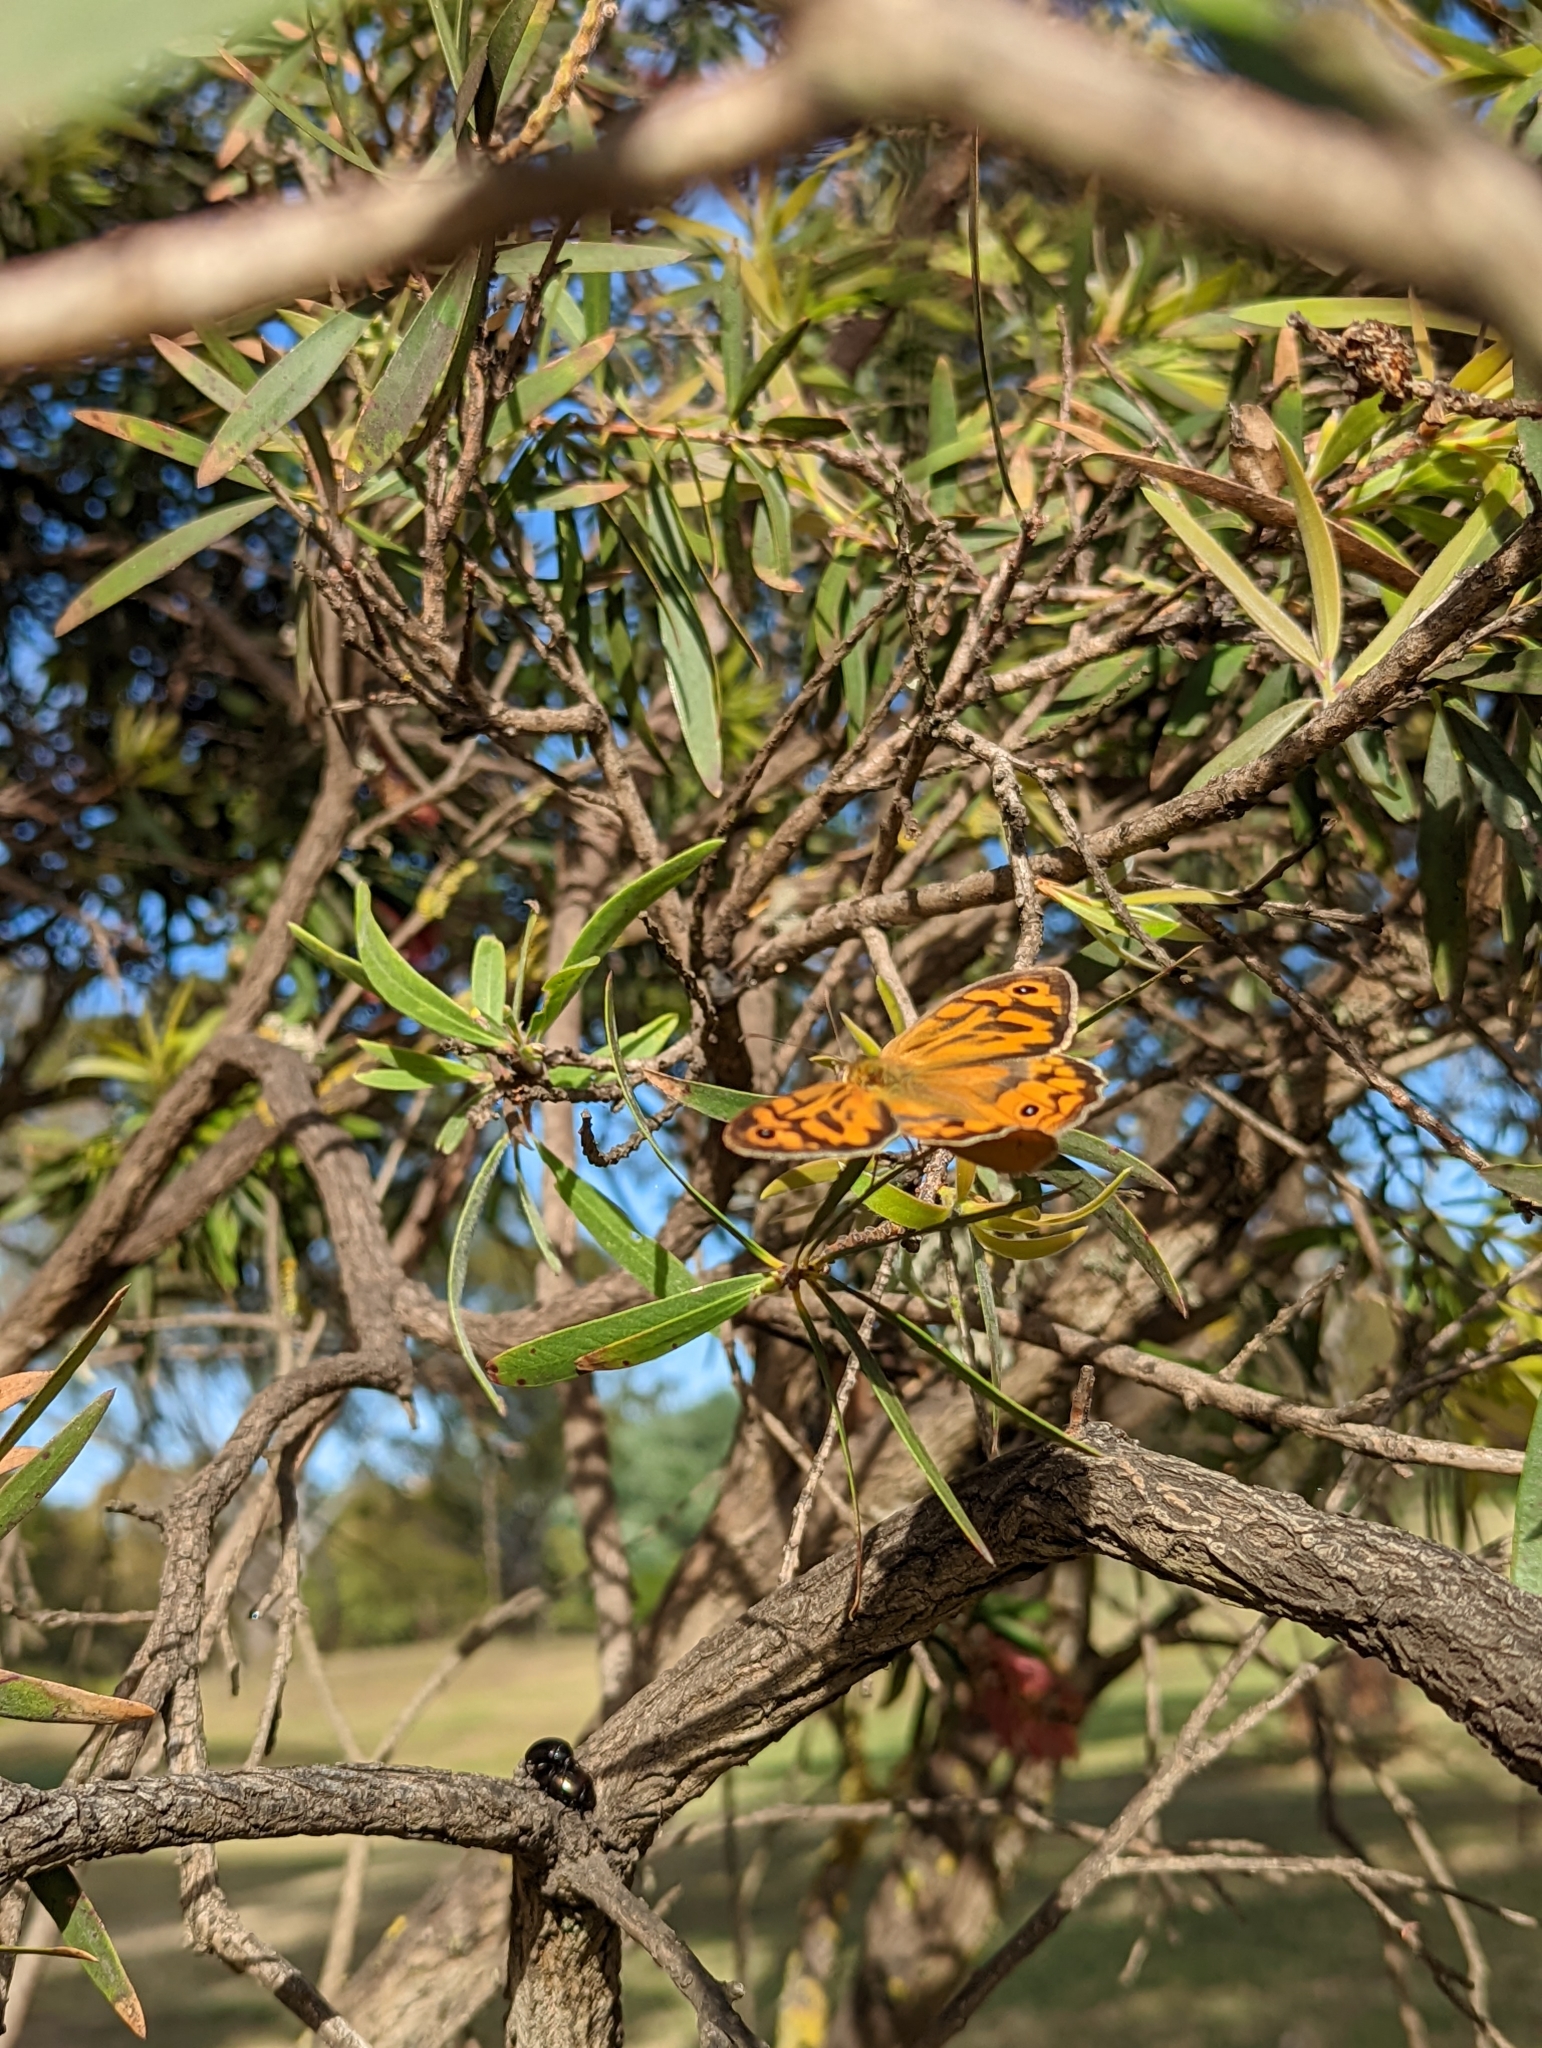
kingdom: Animalia
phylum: Arthropoda
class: Insecta
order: Lepidoptera
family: Nymphalidae
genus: Heteronympha
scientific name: Heteronympha merope
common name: Common brown
